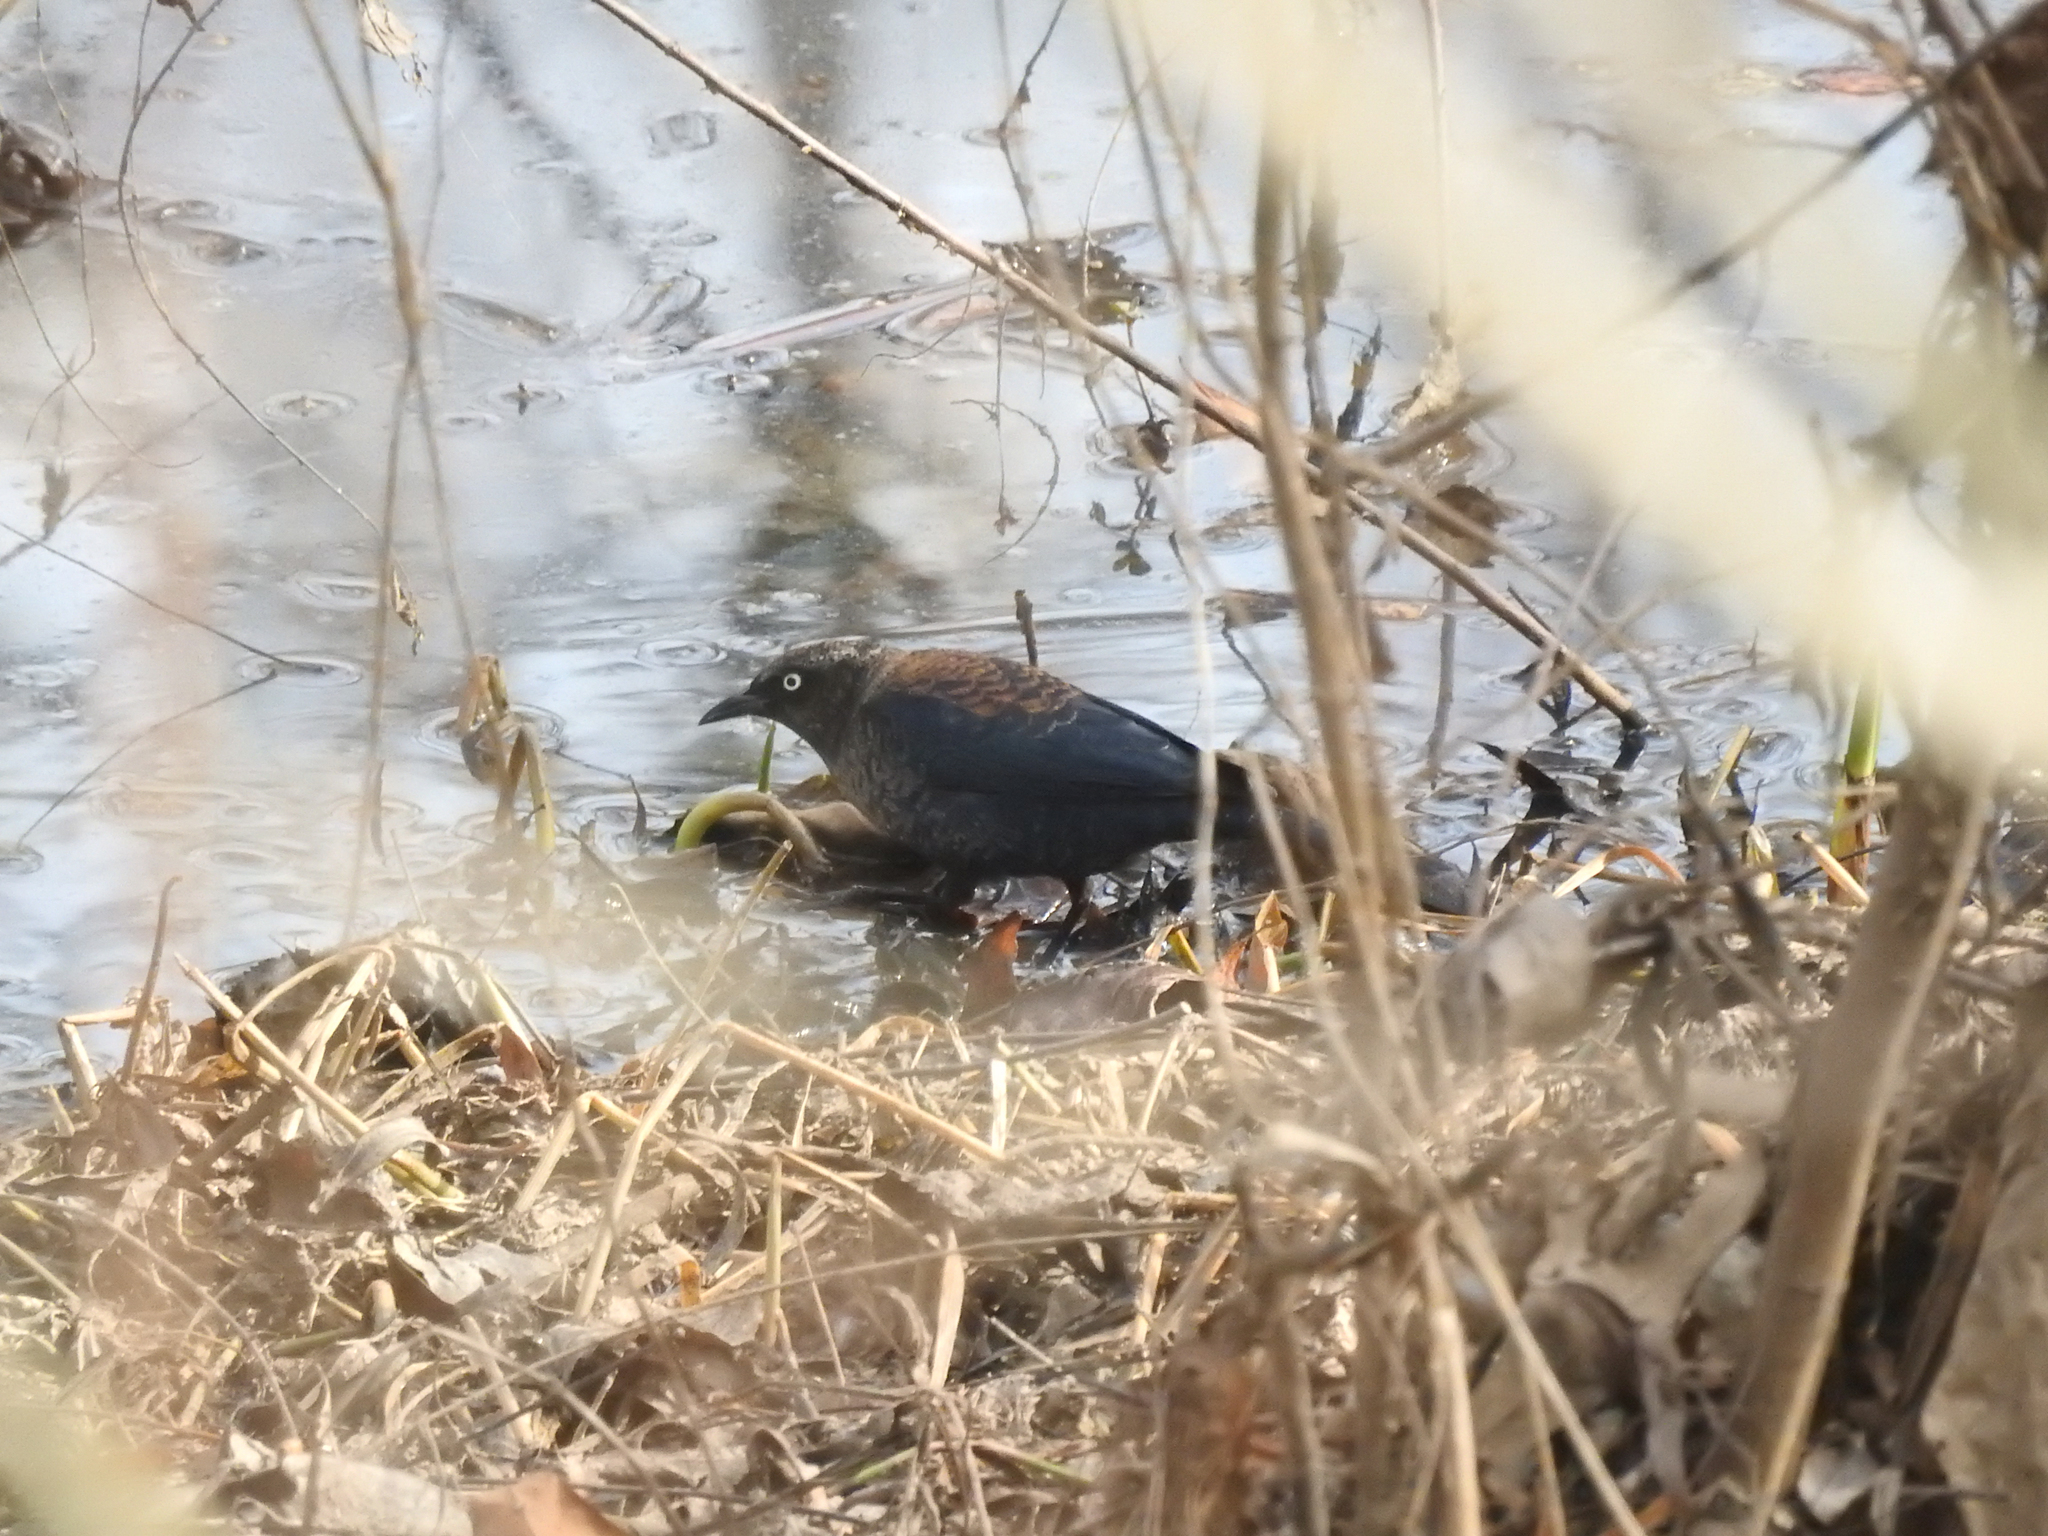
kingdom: Animalia
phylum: Chordata
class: Aves
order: Passeriformes
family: Icteridae
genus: Euphagus
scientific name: Euphagus carolinus
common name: Rusty blackbird
